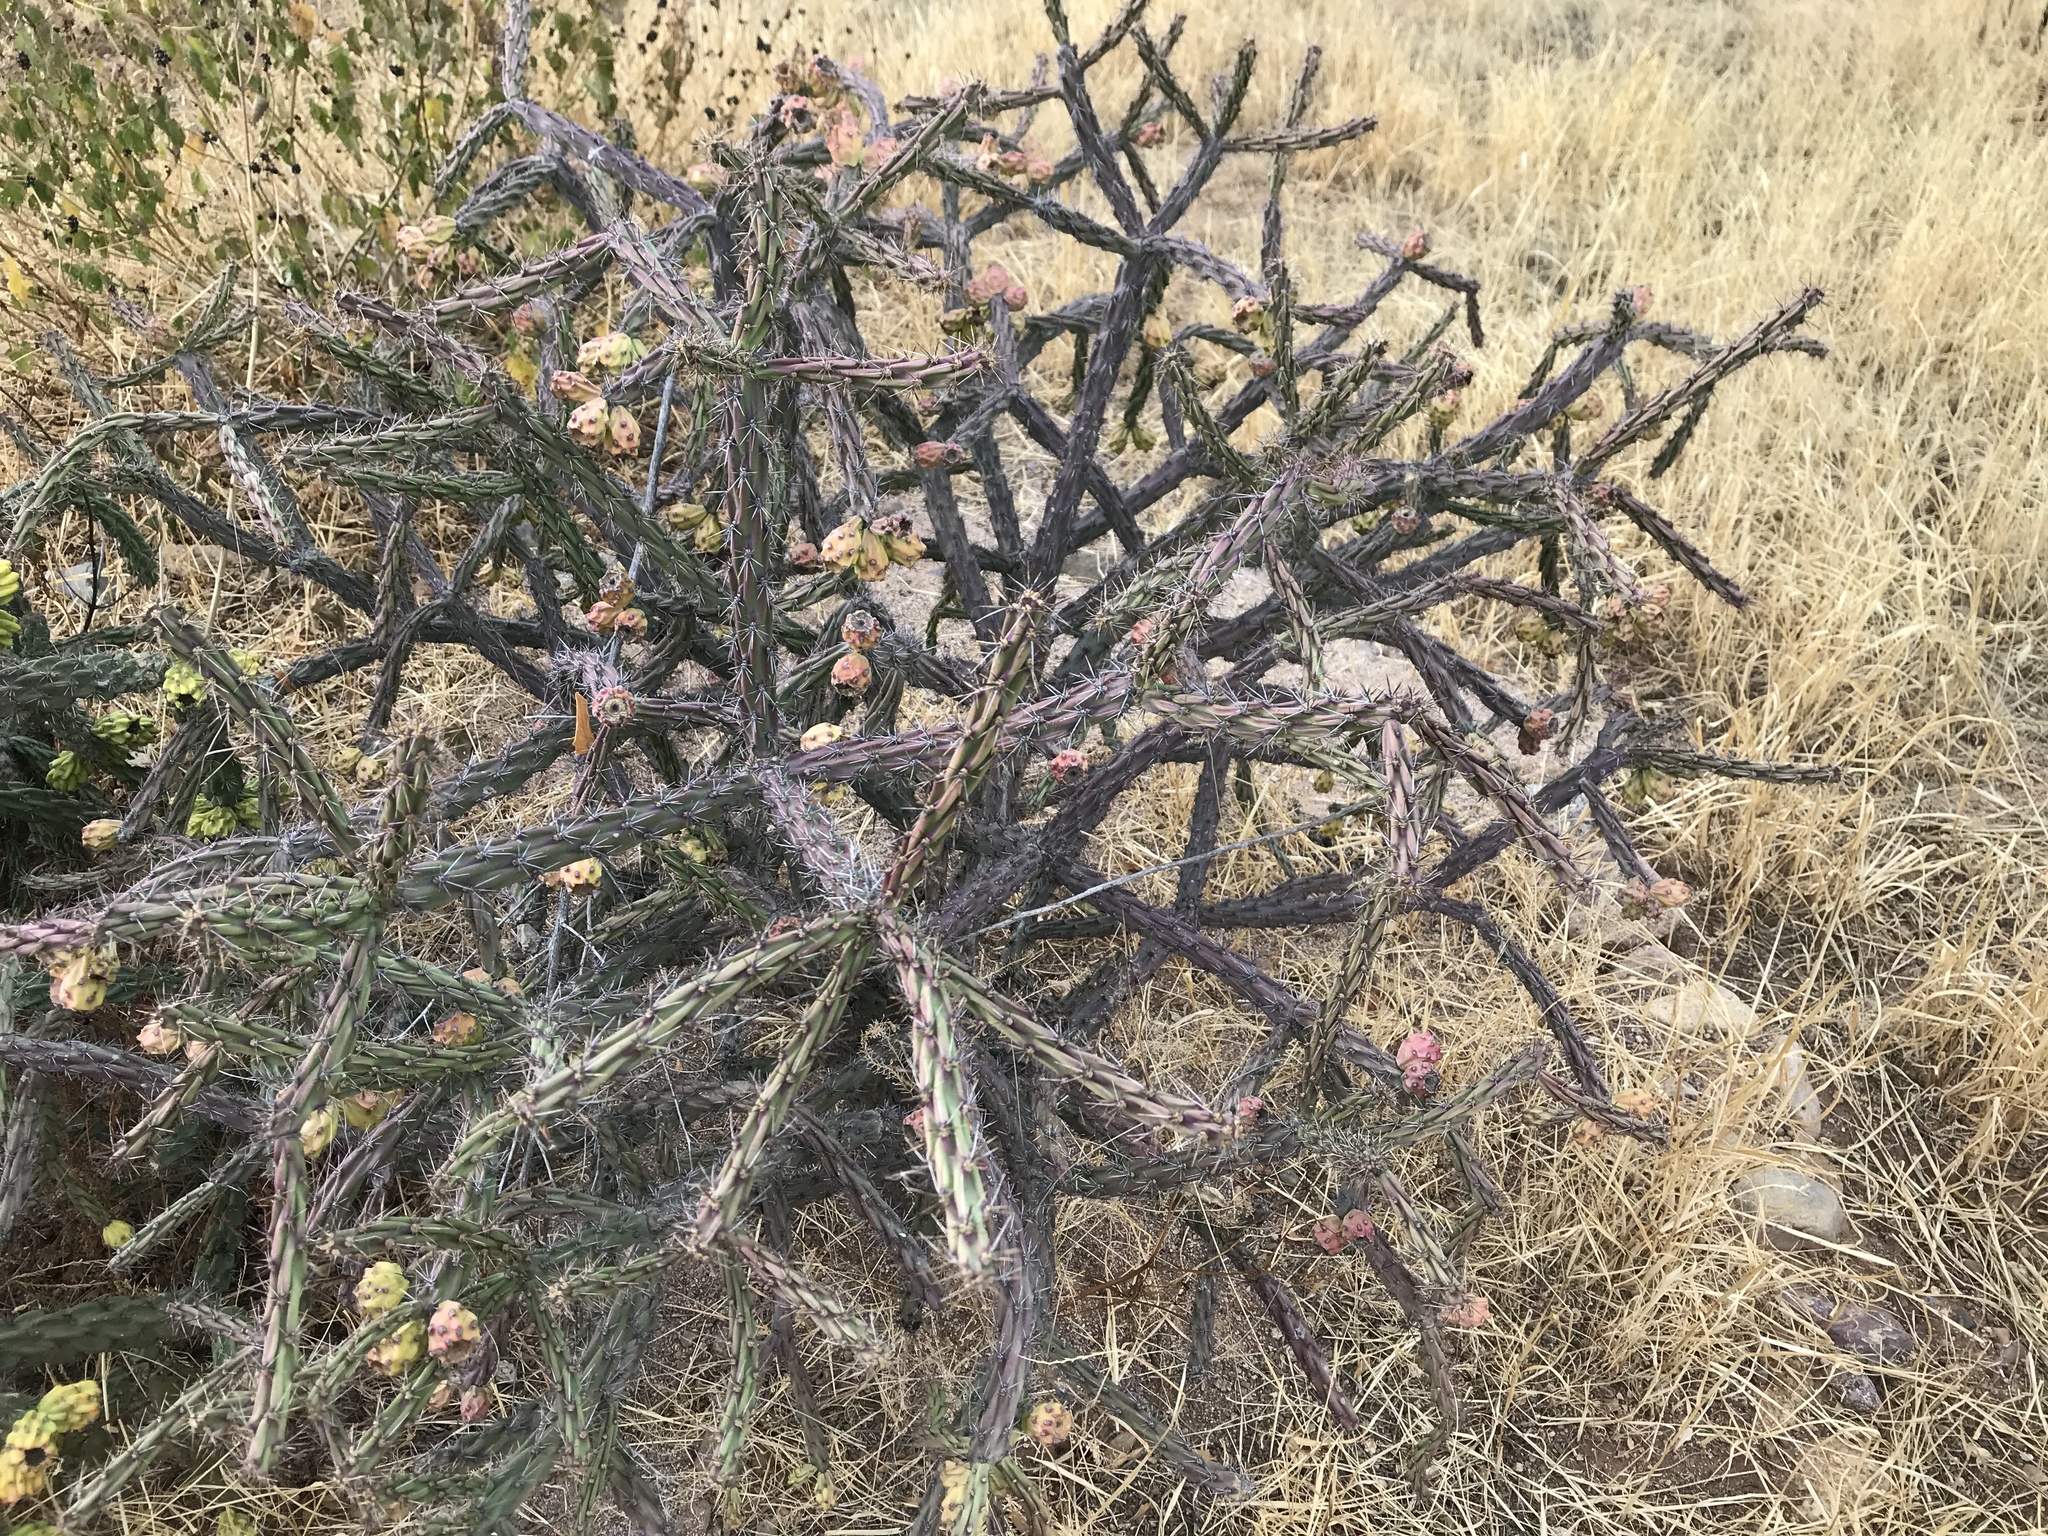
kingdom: Plantae
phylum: Tracheophyta
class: Magnoliopsida
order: Caryophyllales
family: Cactaceae
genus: Cylindropuntia
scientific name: Cylindropuntia thurberi
